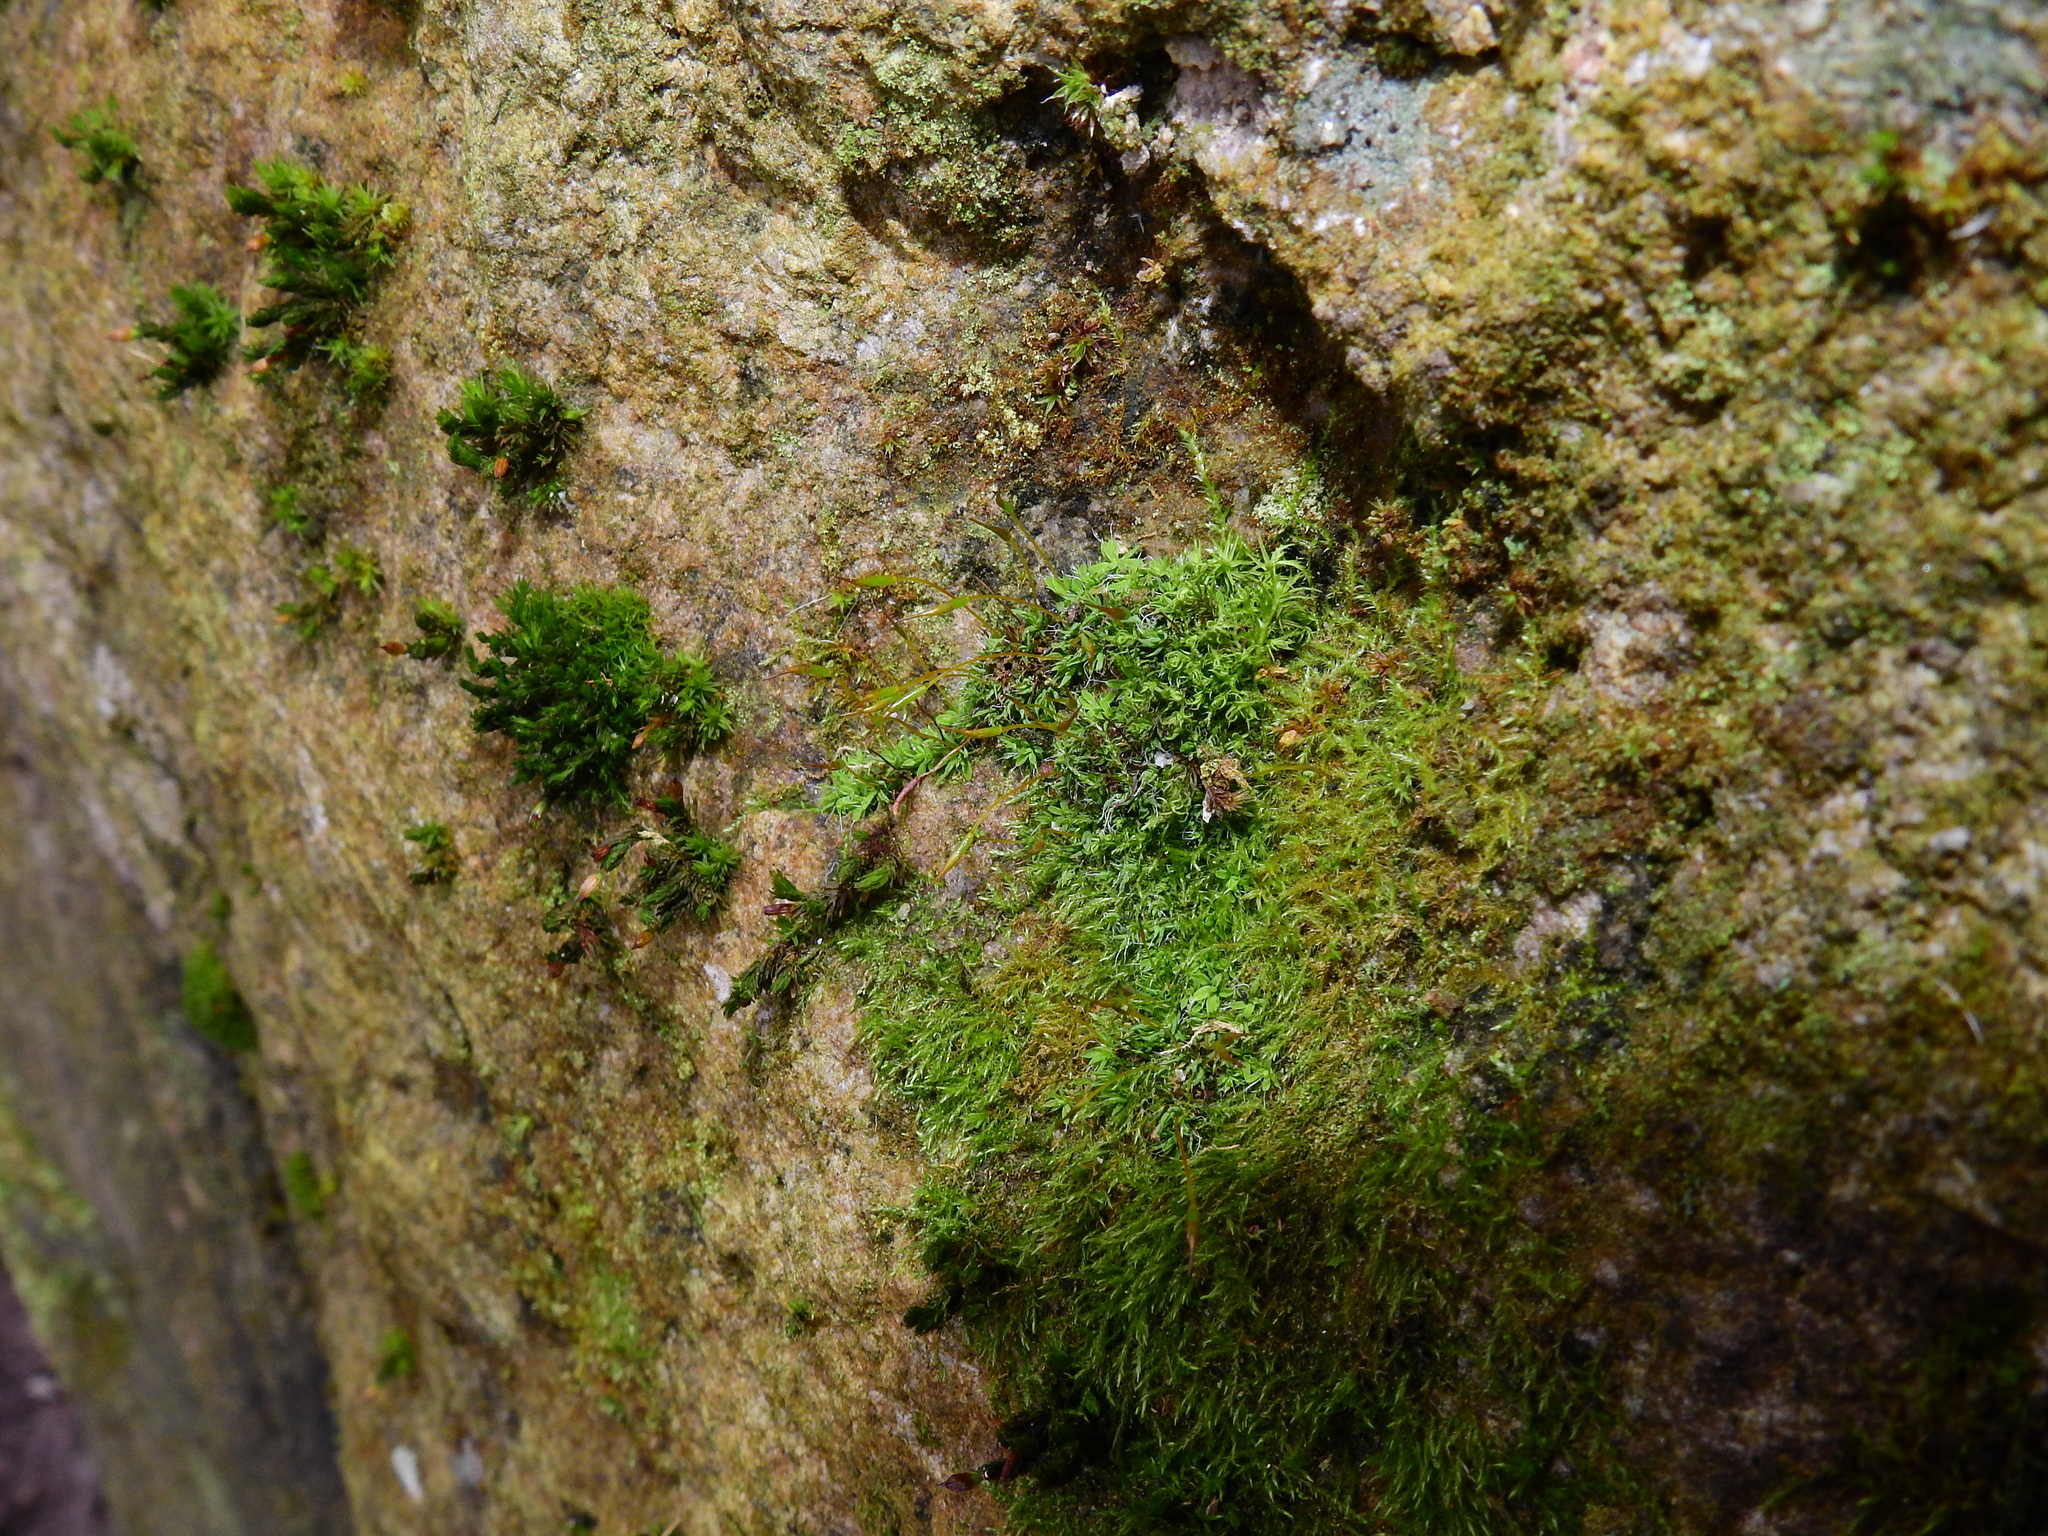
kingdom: Plantae
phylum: Bryophyta
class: Bryopsida
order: Pottiales
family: Pottiaceae
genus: Tortula
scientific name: Tortula muralis
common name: Wall screw-moss
